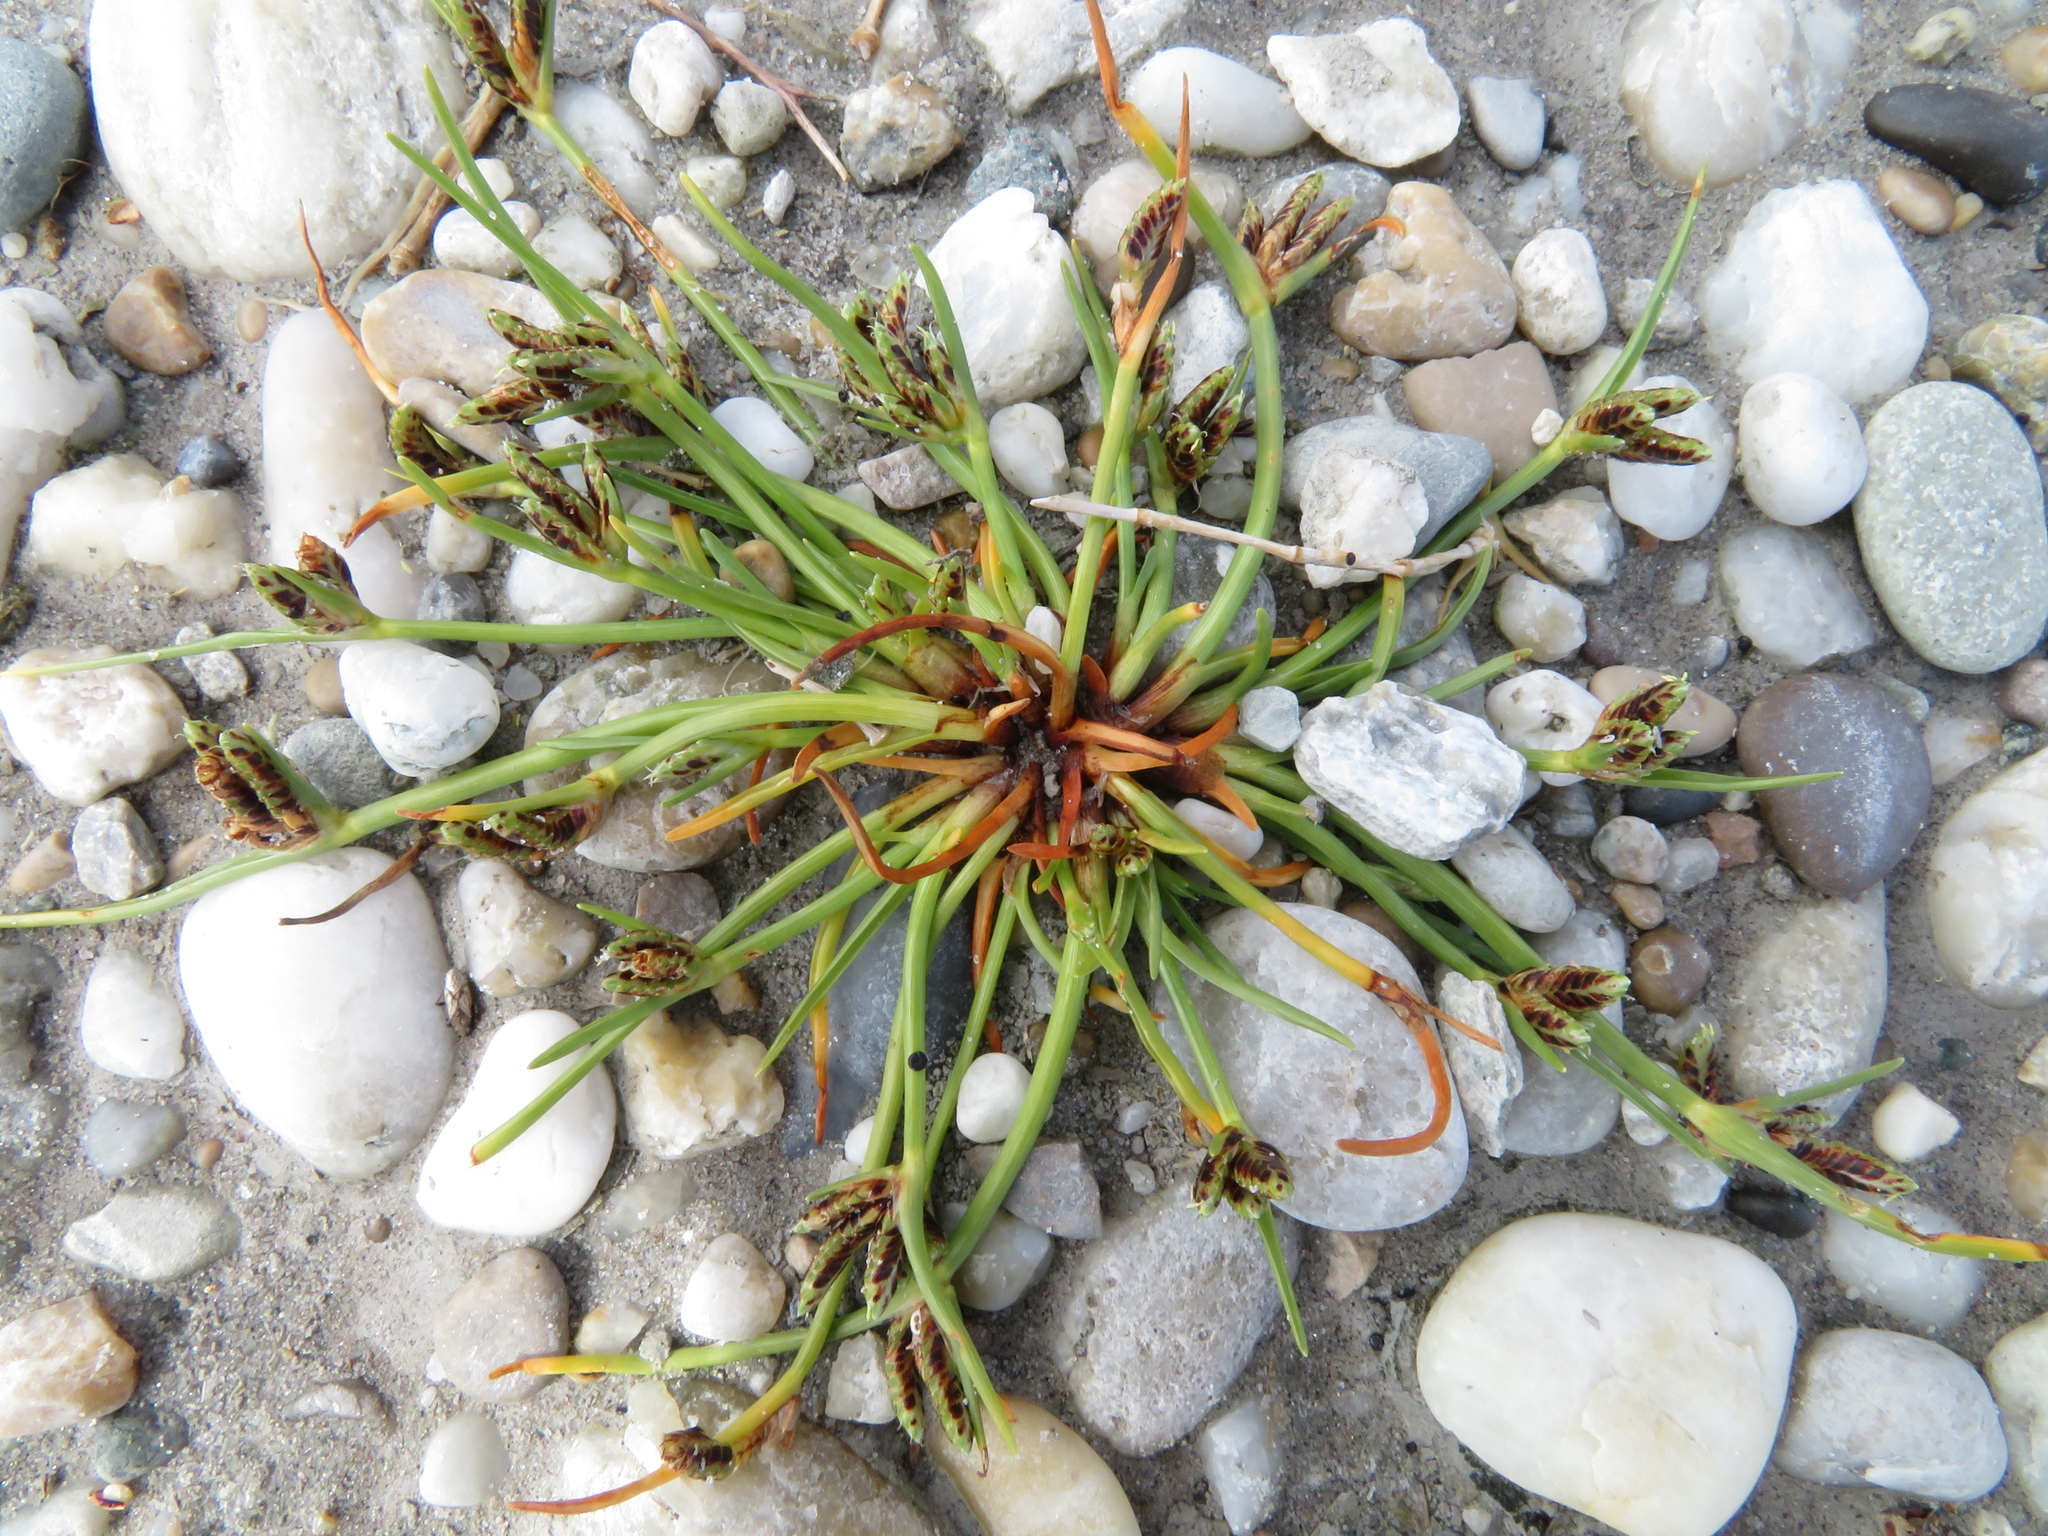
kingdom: Plantae
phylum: Tracheophyta
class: Liliopsida
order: Poales
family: Cyperaceae
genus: Cyperus
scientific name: Cyperus pannonicus
